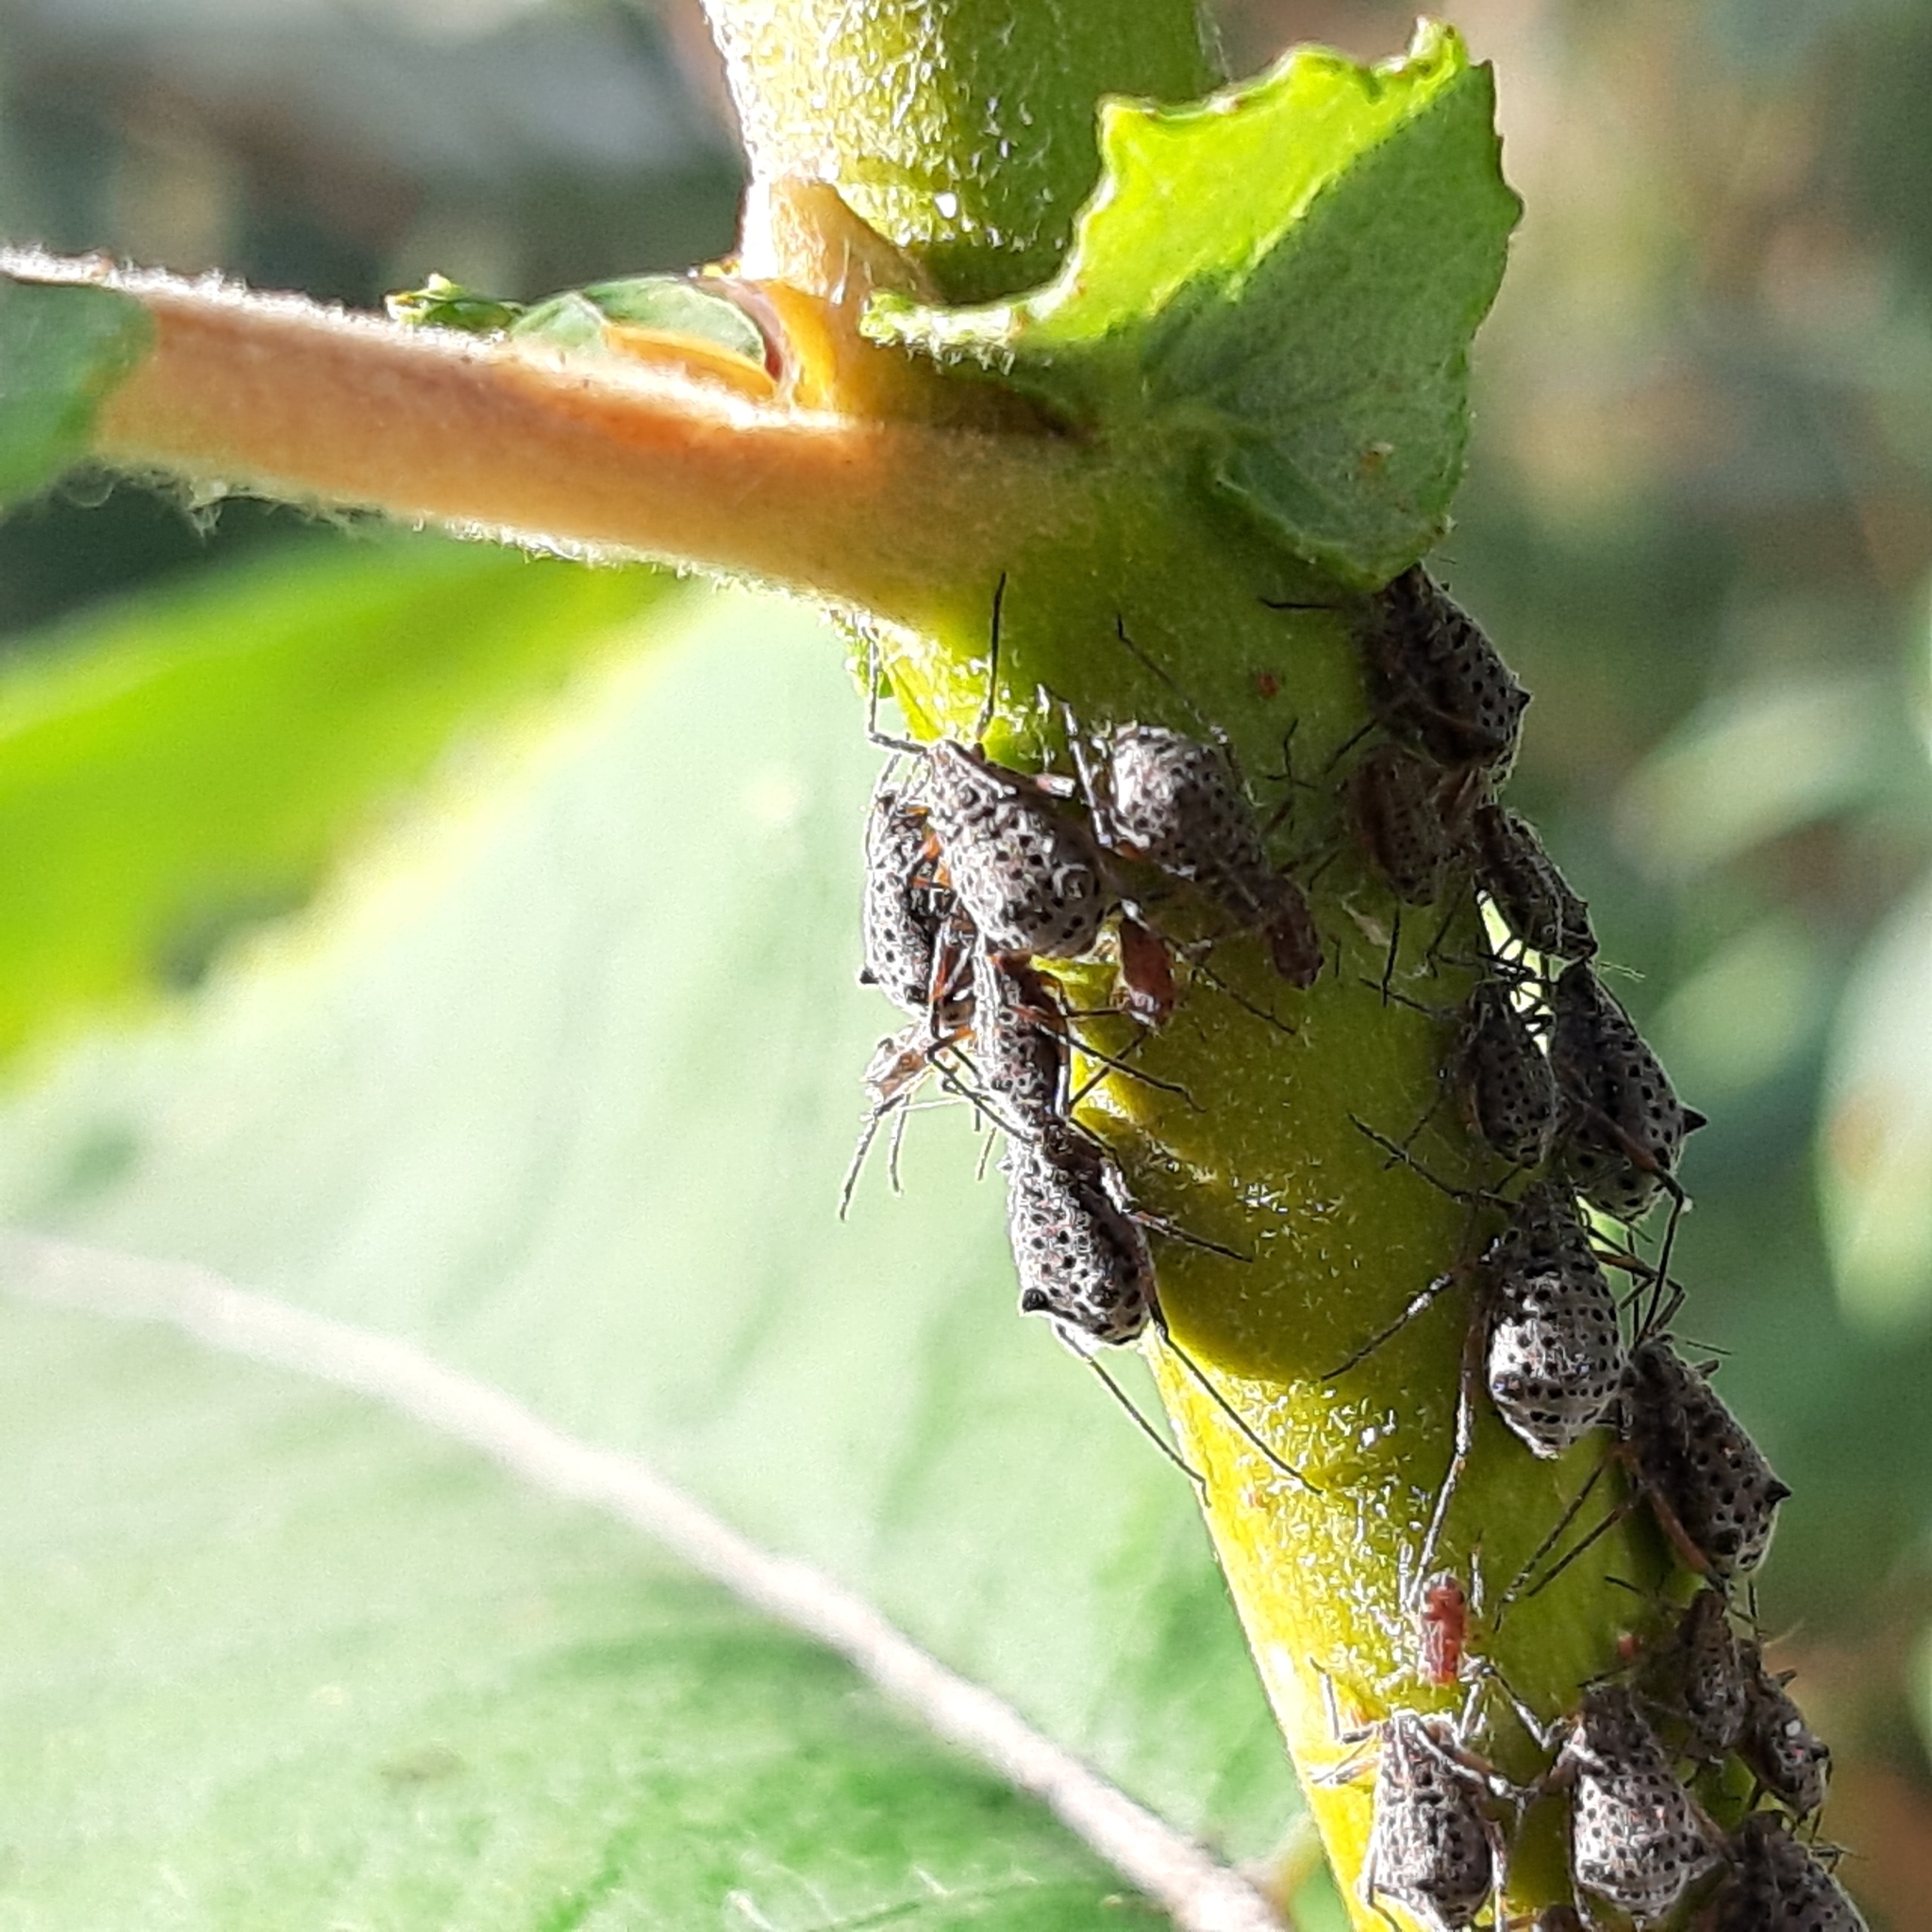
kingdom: Animalia
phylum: Arthropoda
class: Insecta
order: Hemiptera
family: Aphididae
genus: Tuberolachnus
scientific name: Tuberolachnus salignus
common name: Giant willow aphid
